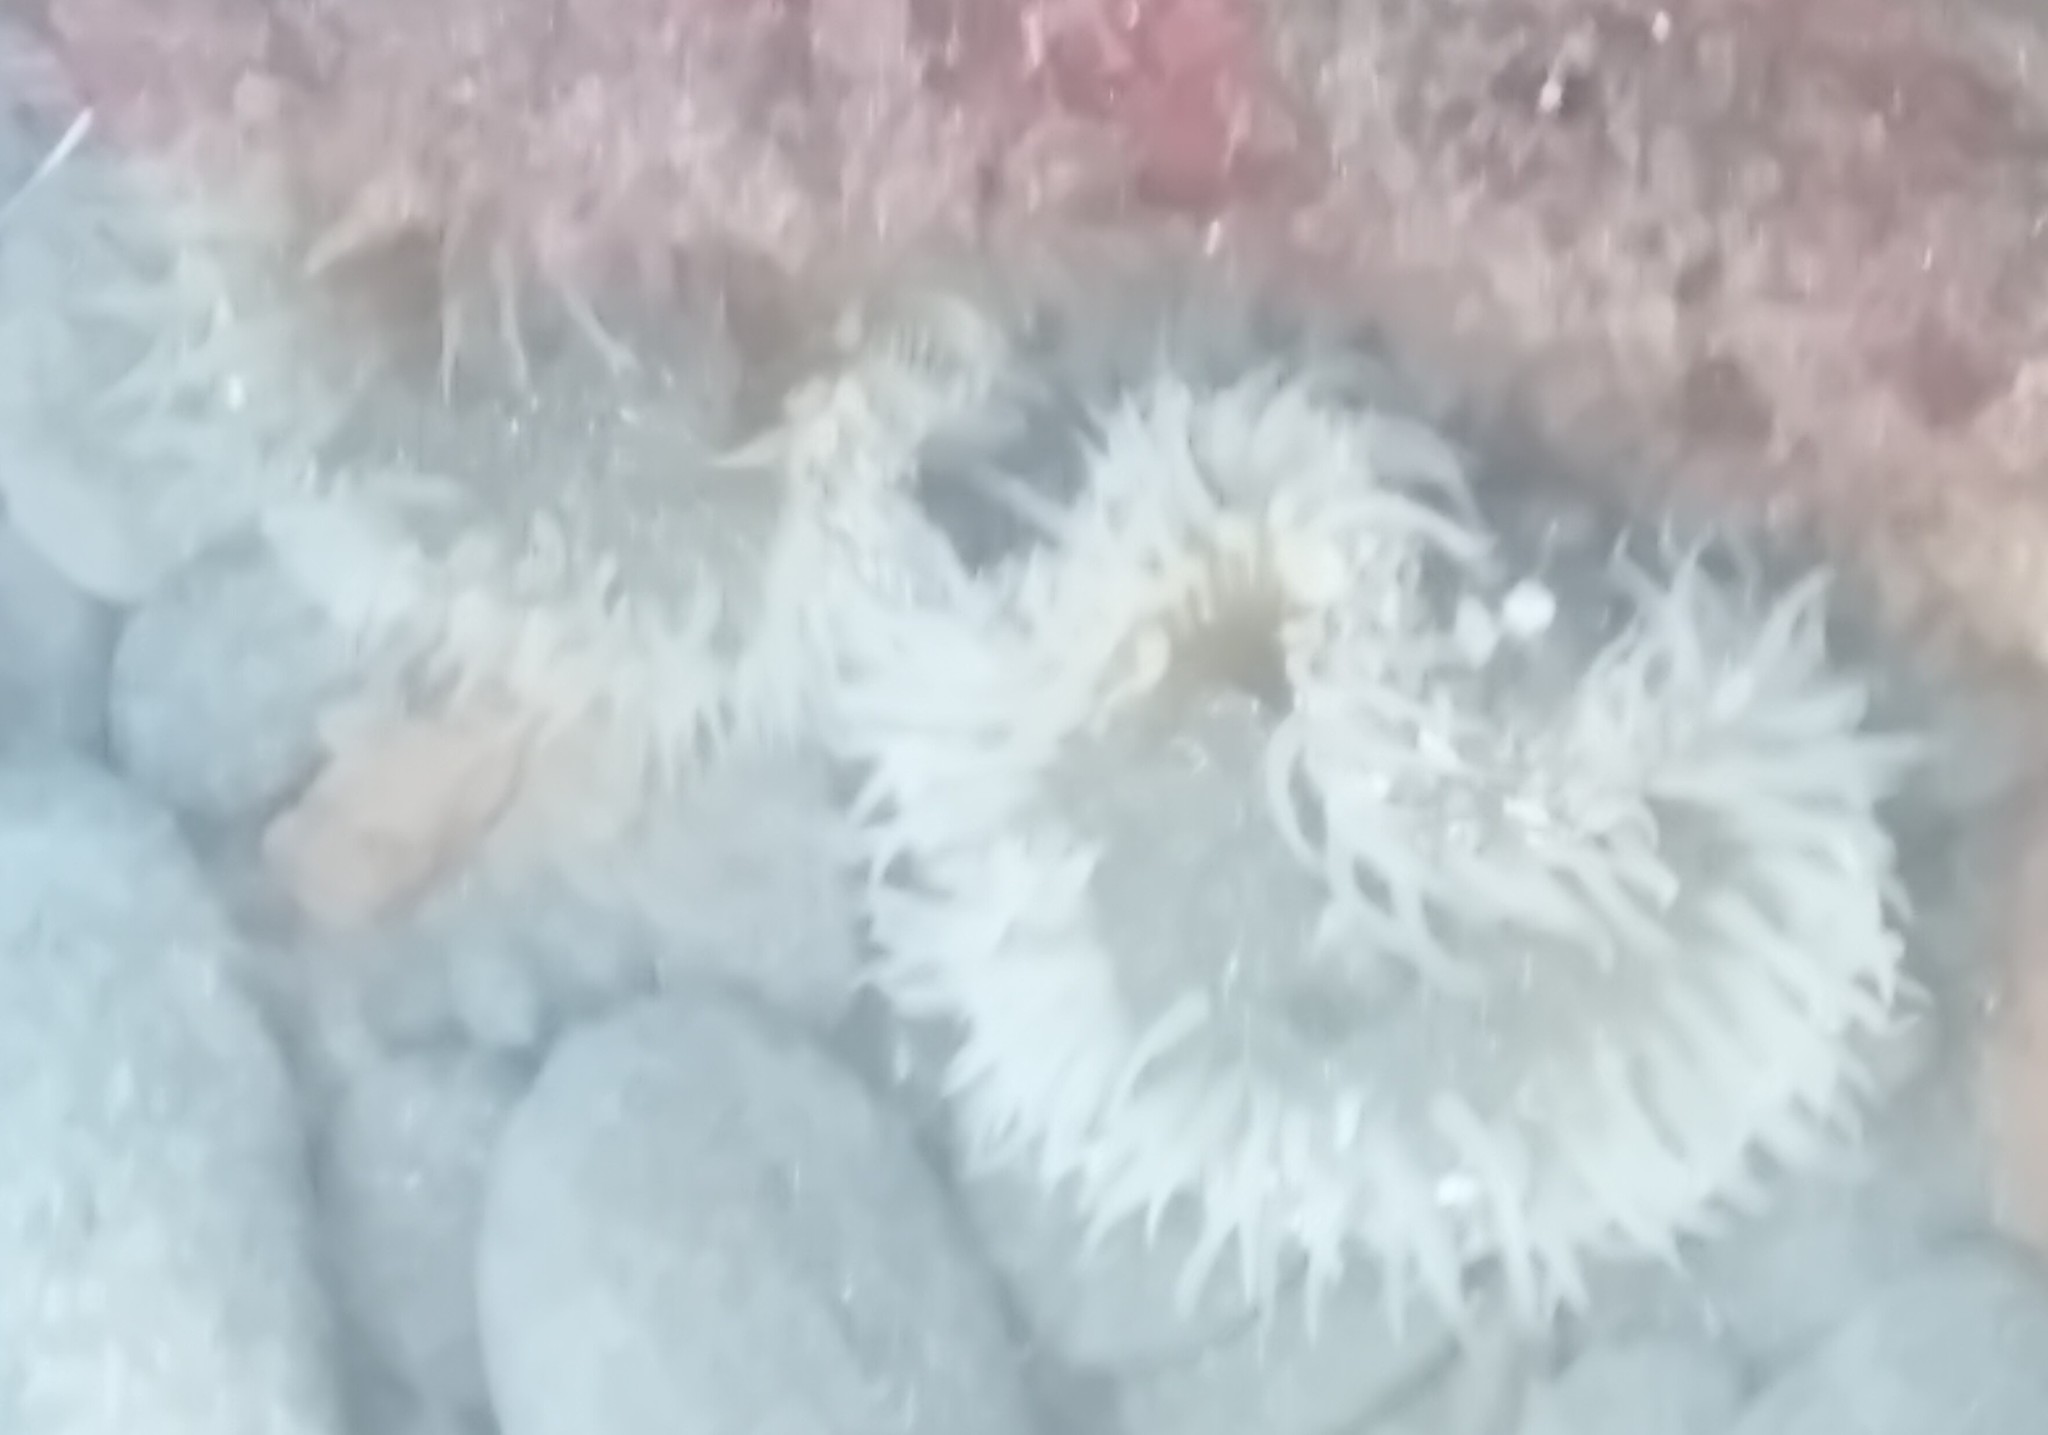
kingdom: Animalia
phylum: Cnidaria
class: Anthozoa
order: Actiniaria
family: Actiniidae
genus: Oulactis
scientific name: Oulactis magna
